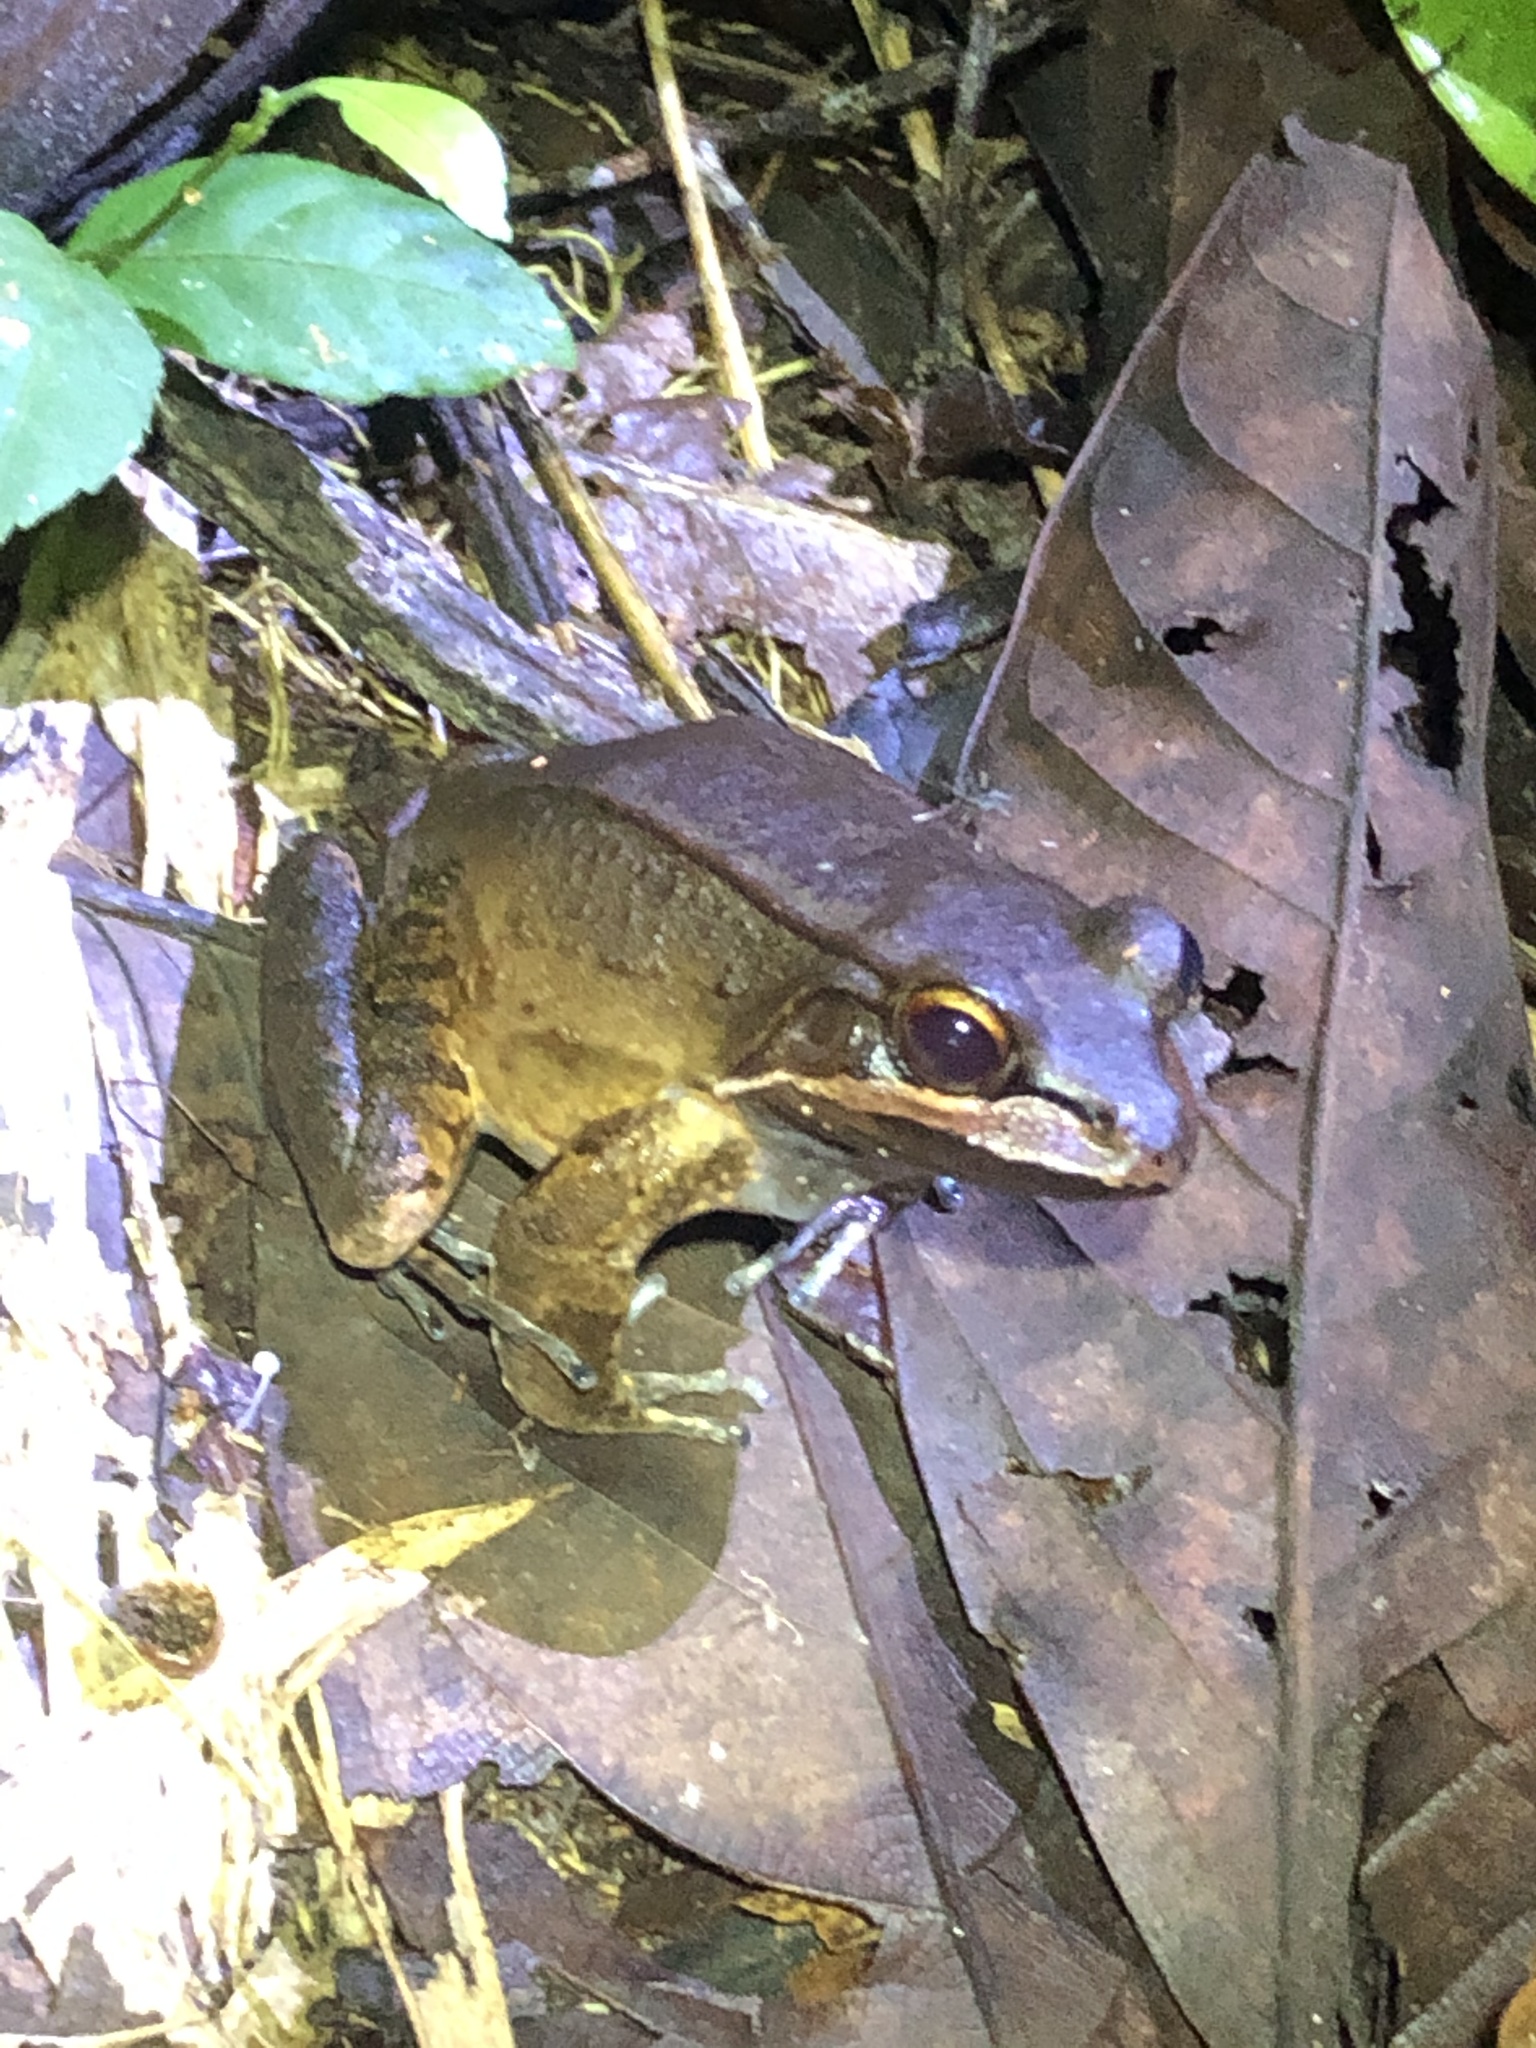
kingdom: Animalia
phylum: Chordata
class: Amphibia
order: Anura
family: Leptodactylidae
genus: Leptodactylus
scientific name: Leptodactylus rhodomystax
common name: Loreto white-lipped frog
